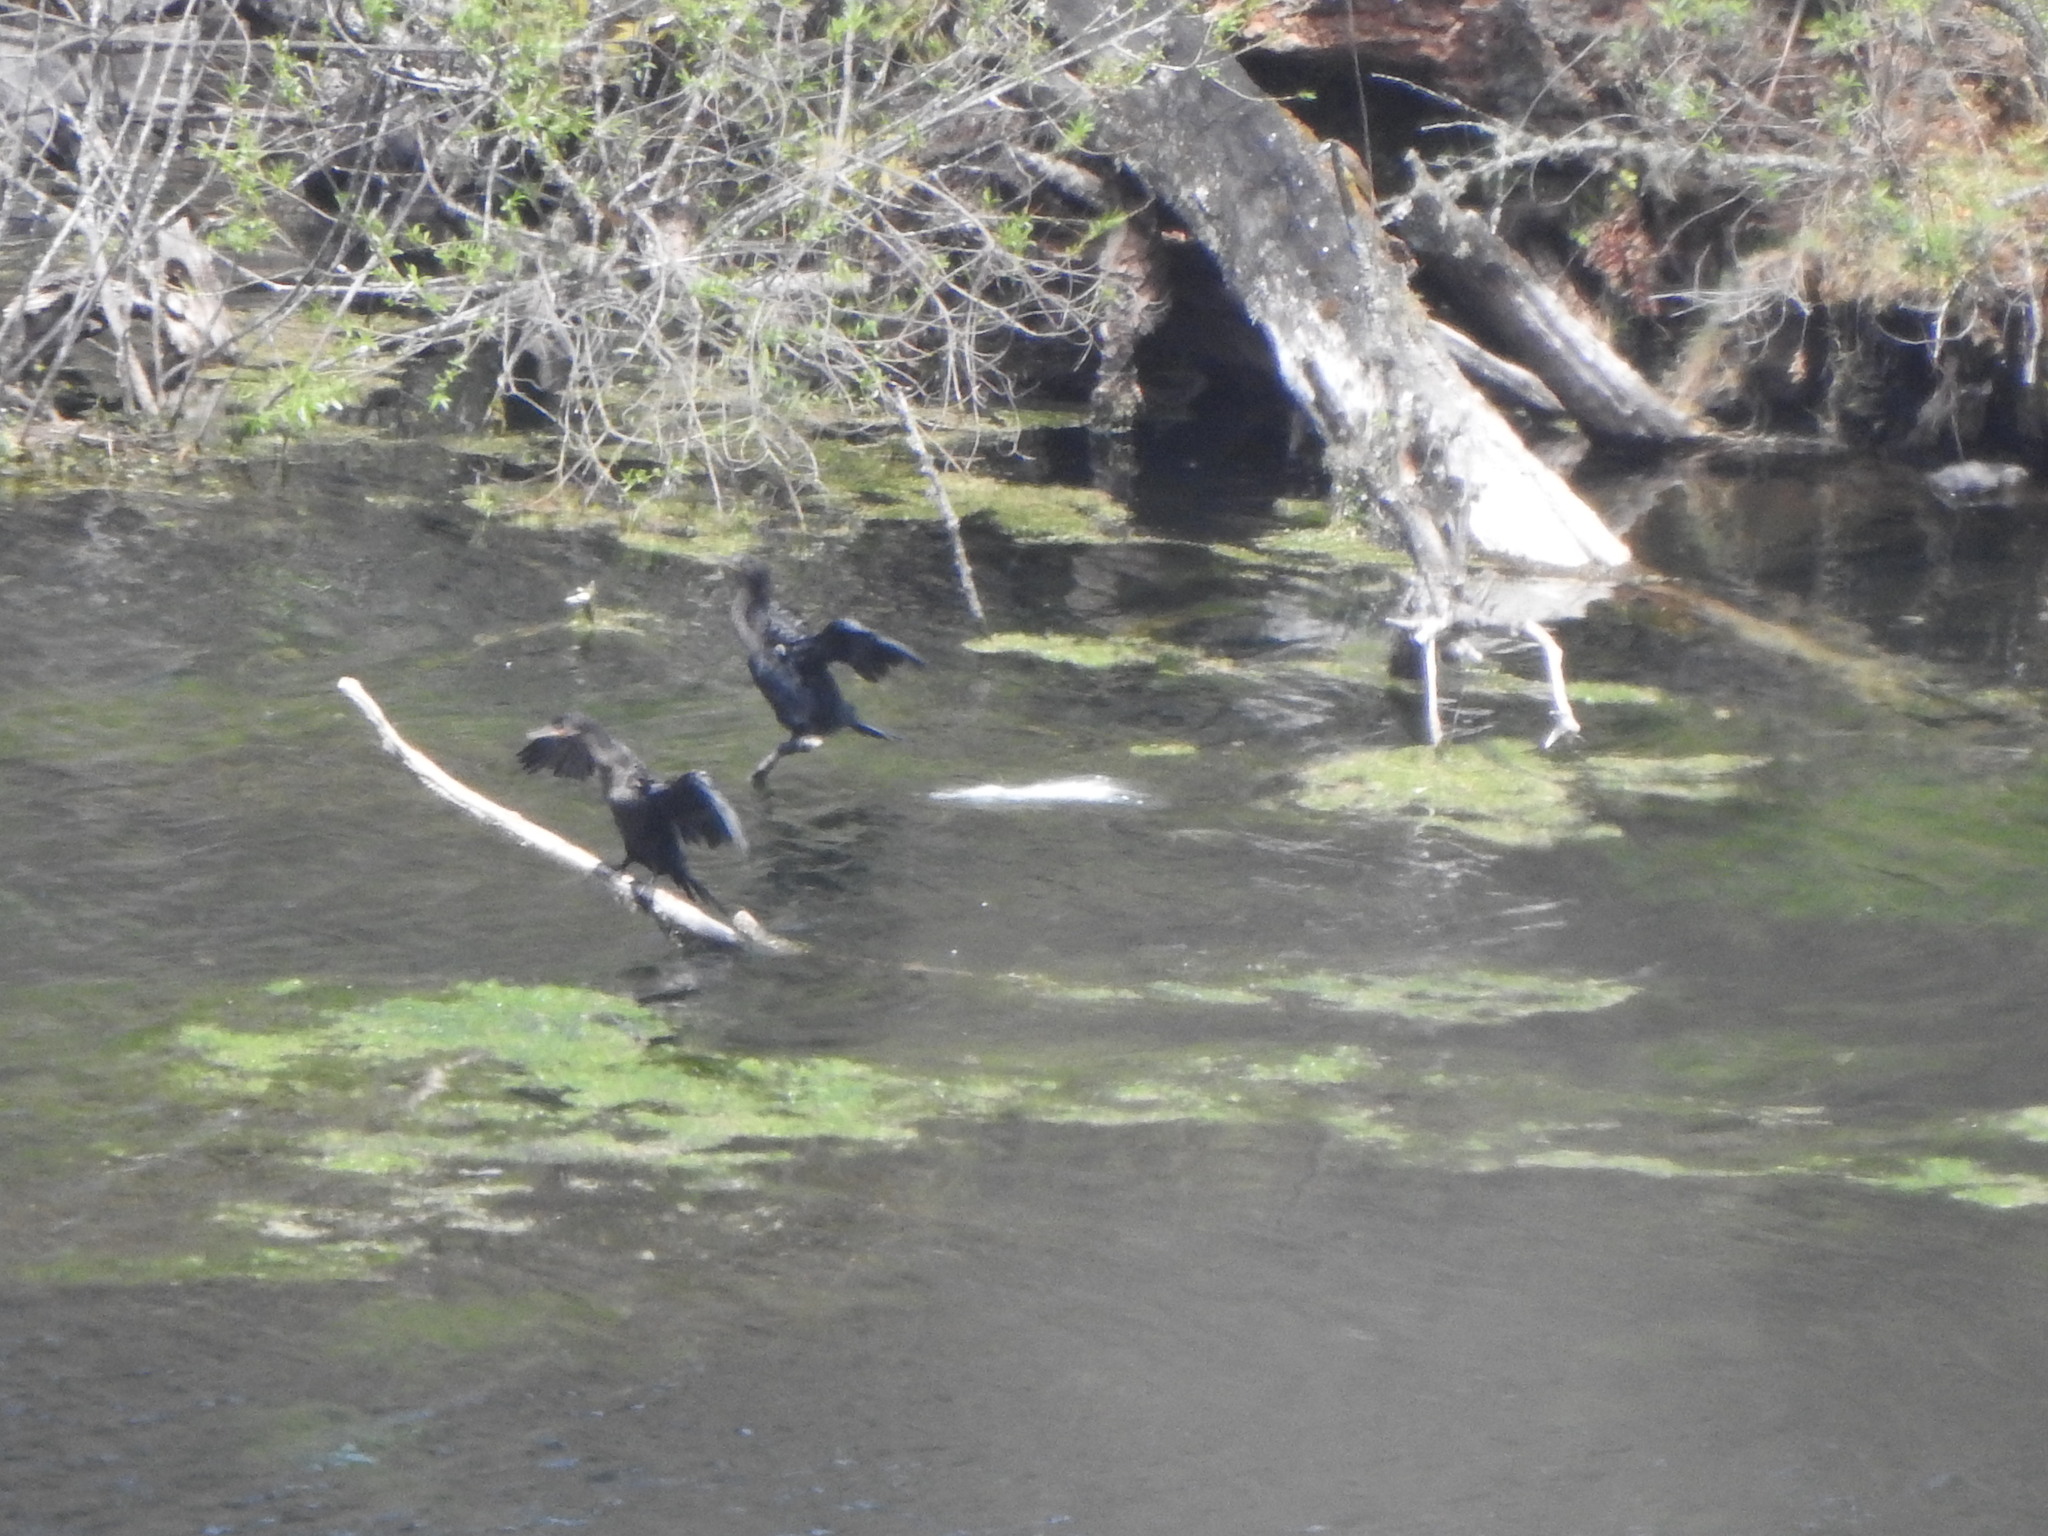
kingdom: Animalia
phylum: Chordata
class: Aves
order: Suliformes
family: Phalacrocoracidae
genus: Phalacrocorax
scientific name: Phalacrocorax brasilianus
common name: Neotropic cormorant
